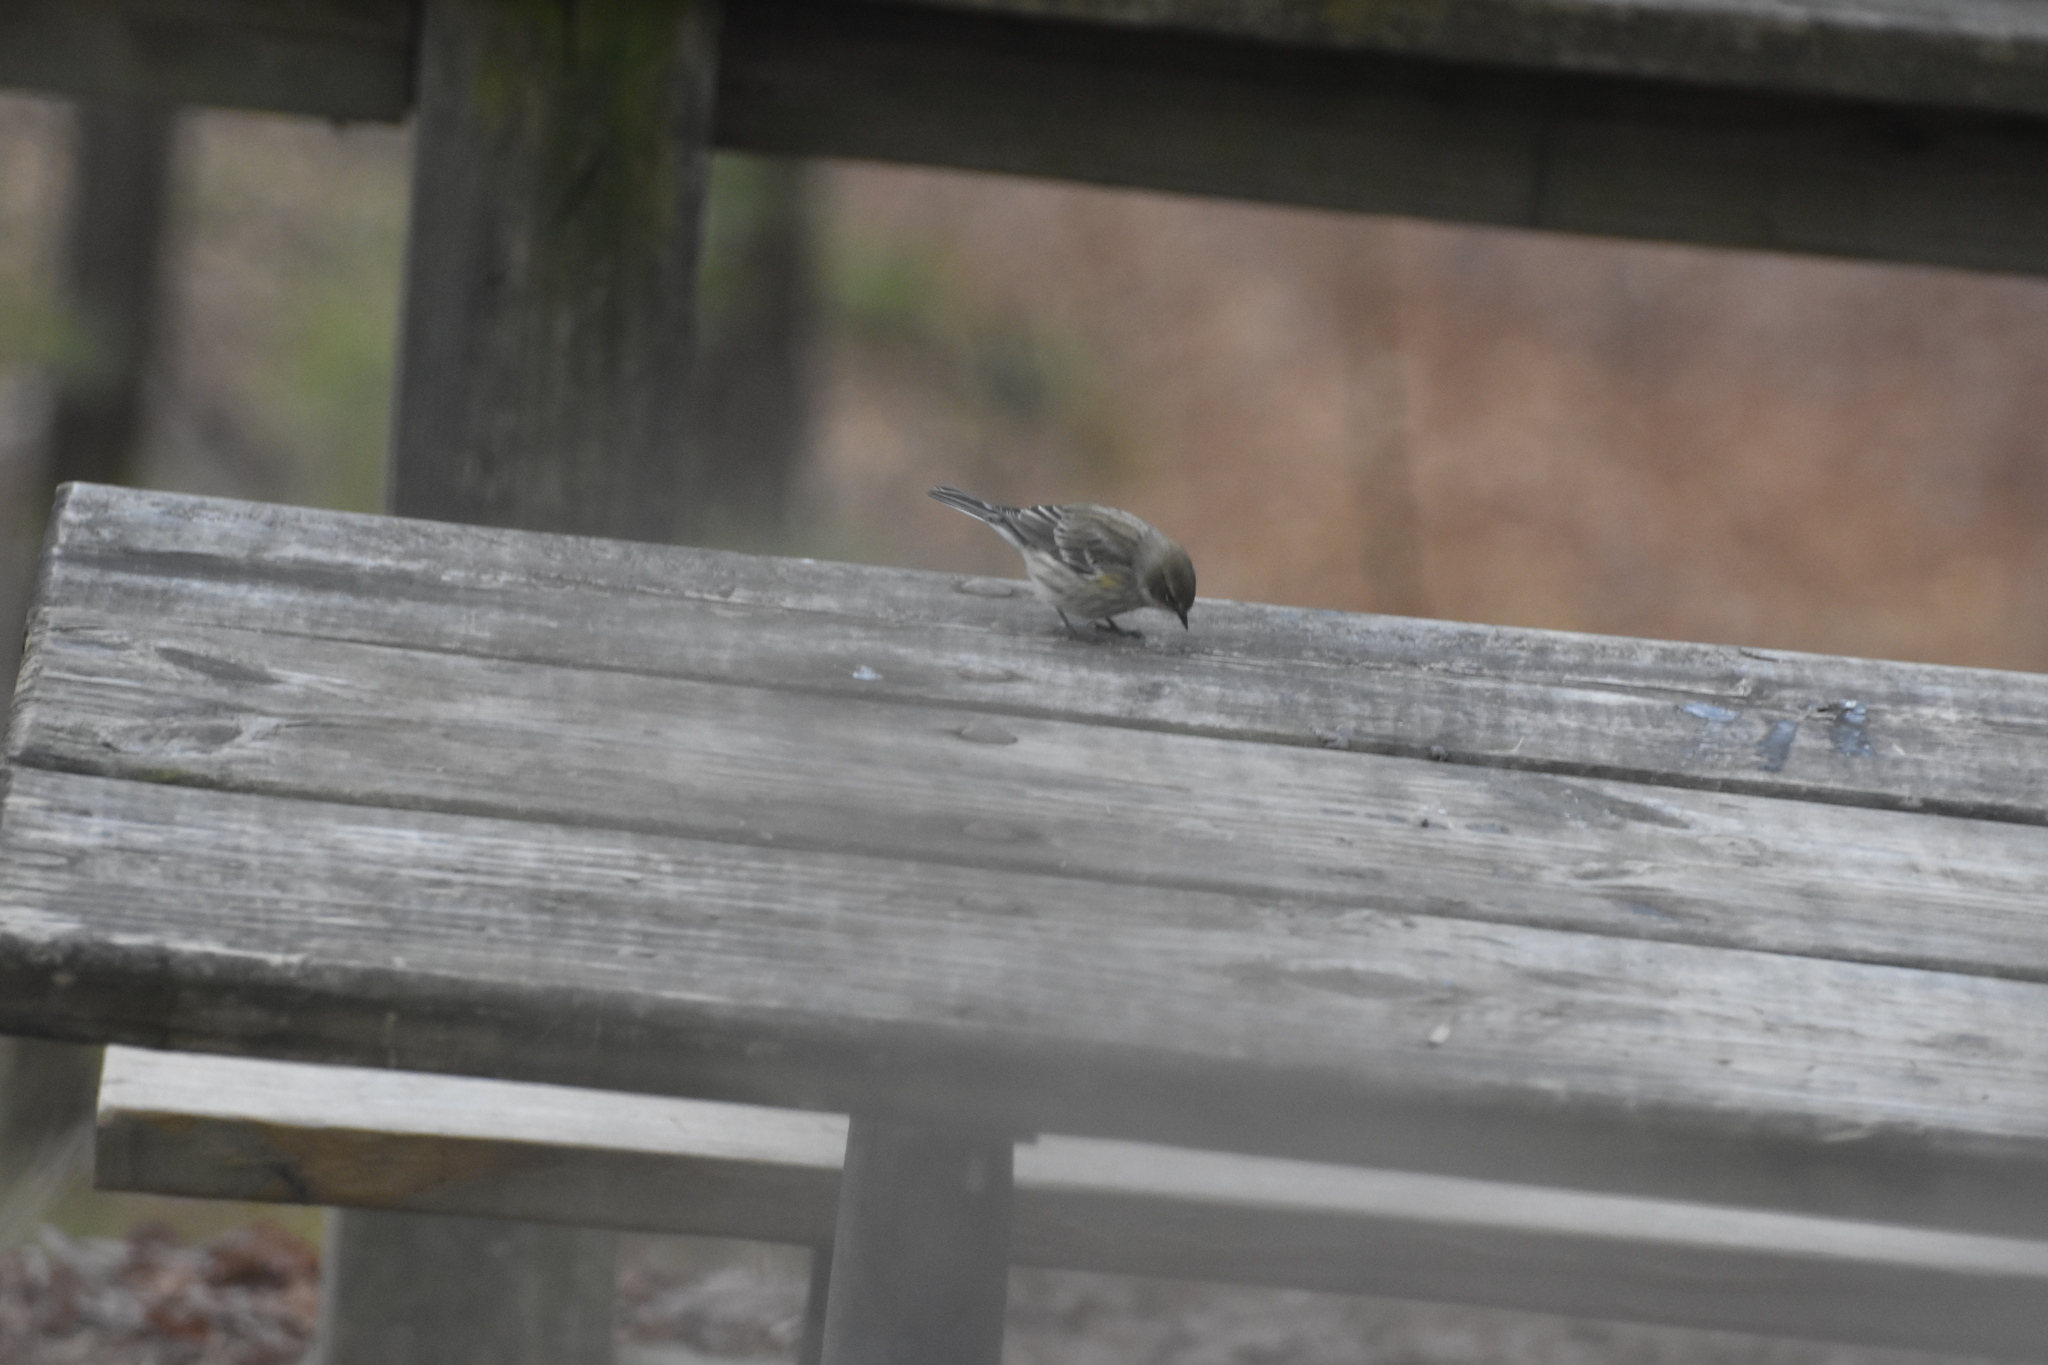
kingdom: Animalia
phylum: Chordata
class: Aves
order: Passeriformes
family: Parulidae
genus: Setophaga
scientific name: Setophaga coronata
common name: Myrtle warbler
